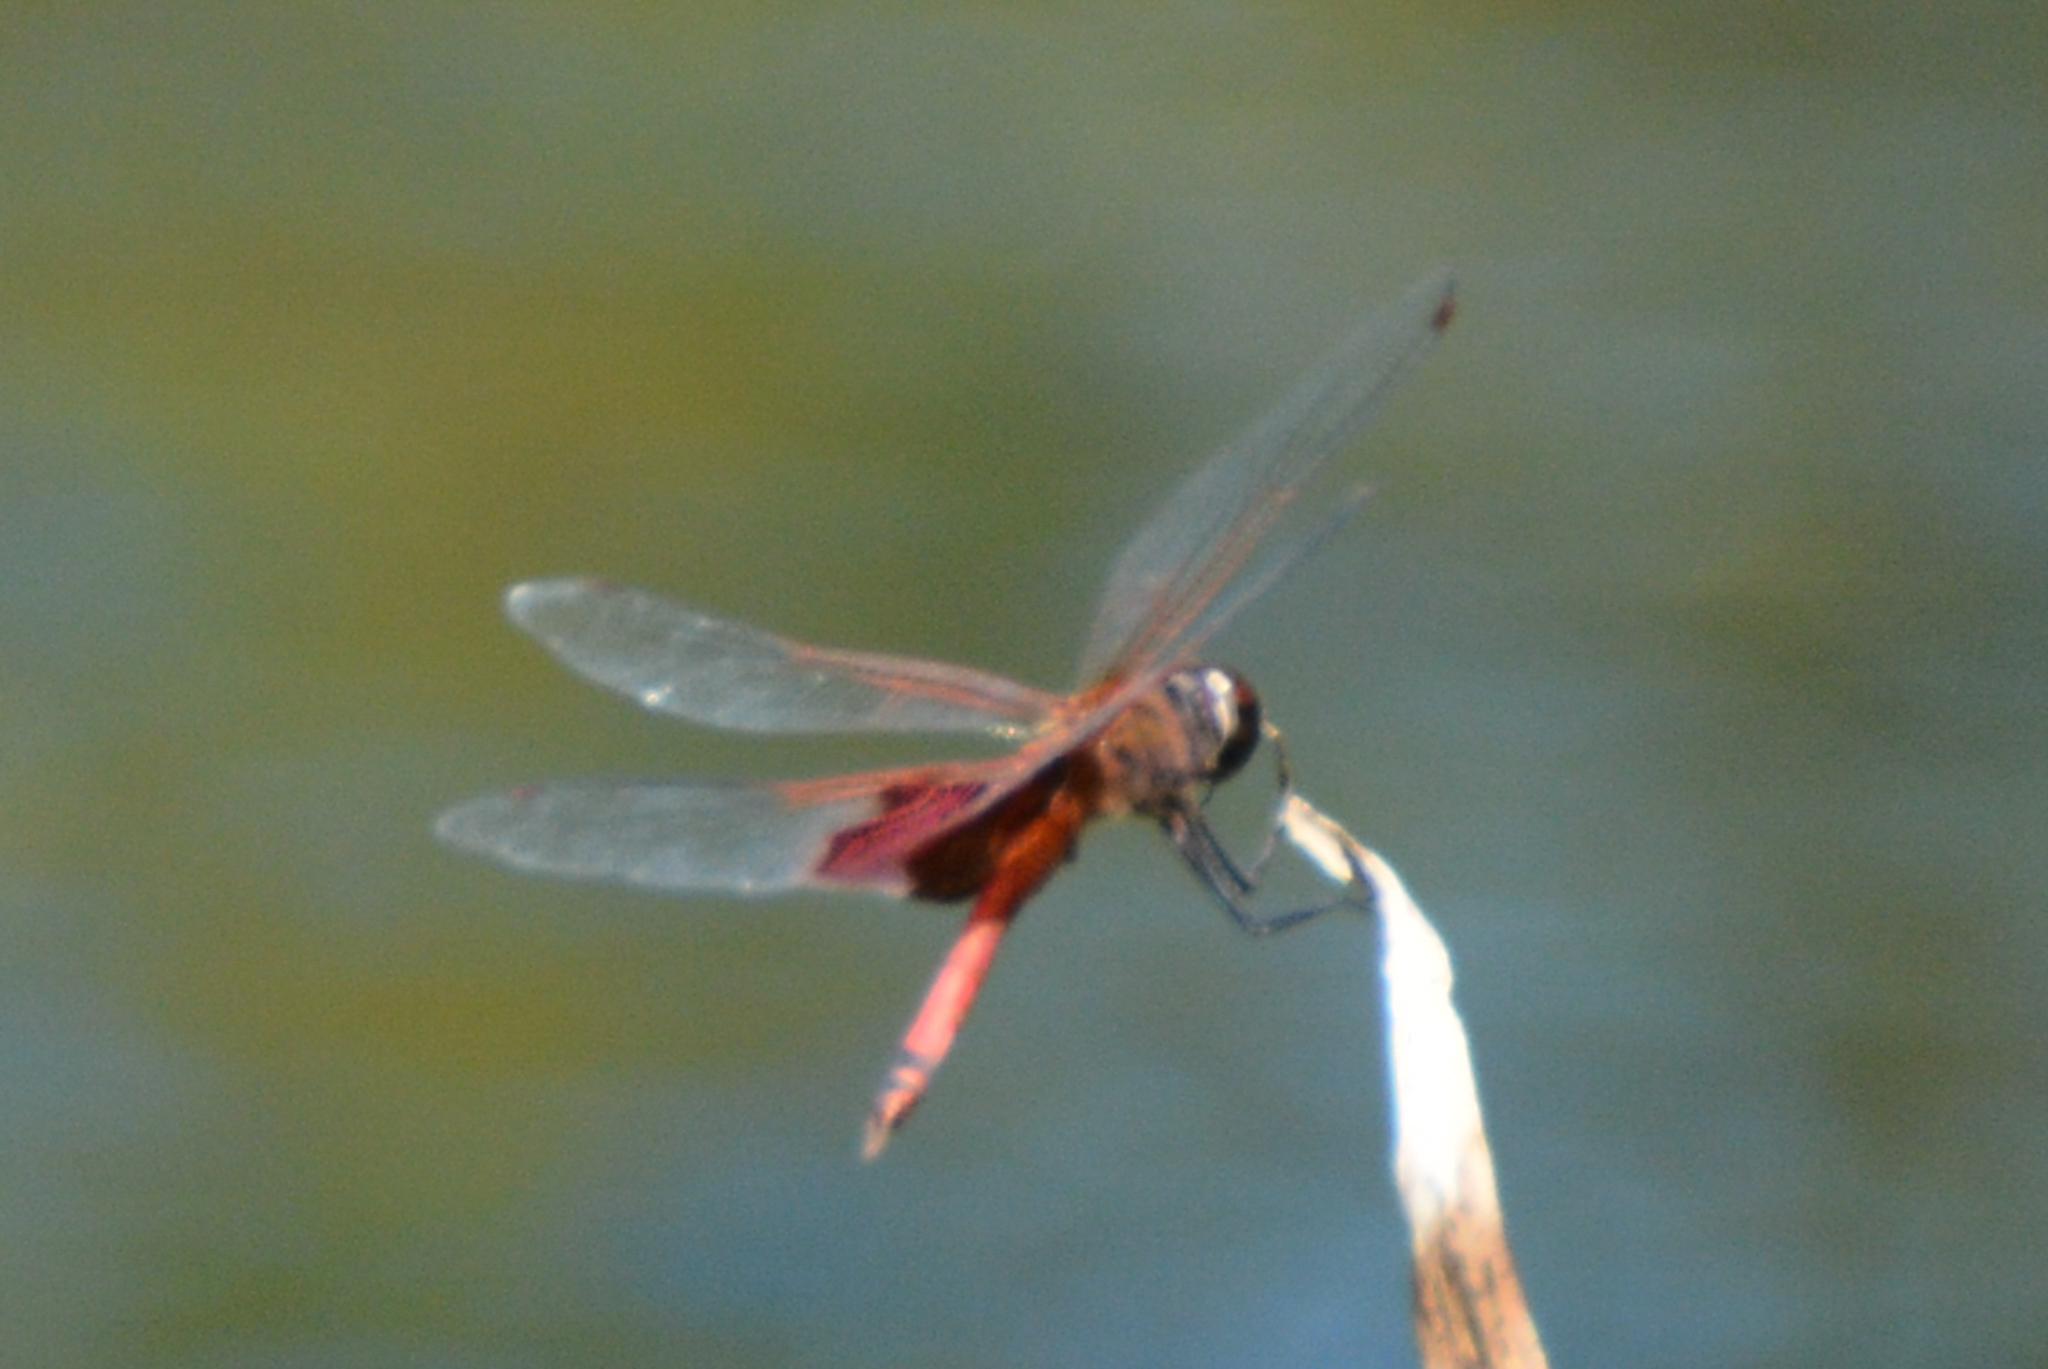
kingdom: Animalia
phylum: Arthropoda
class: Insecta
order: Odonata
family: Libellulidae
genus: Tramea
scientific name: Tramea carolina
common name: Carolina saddlebags
